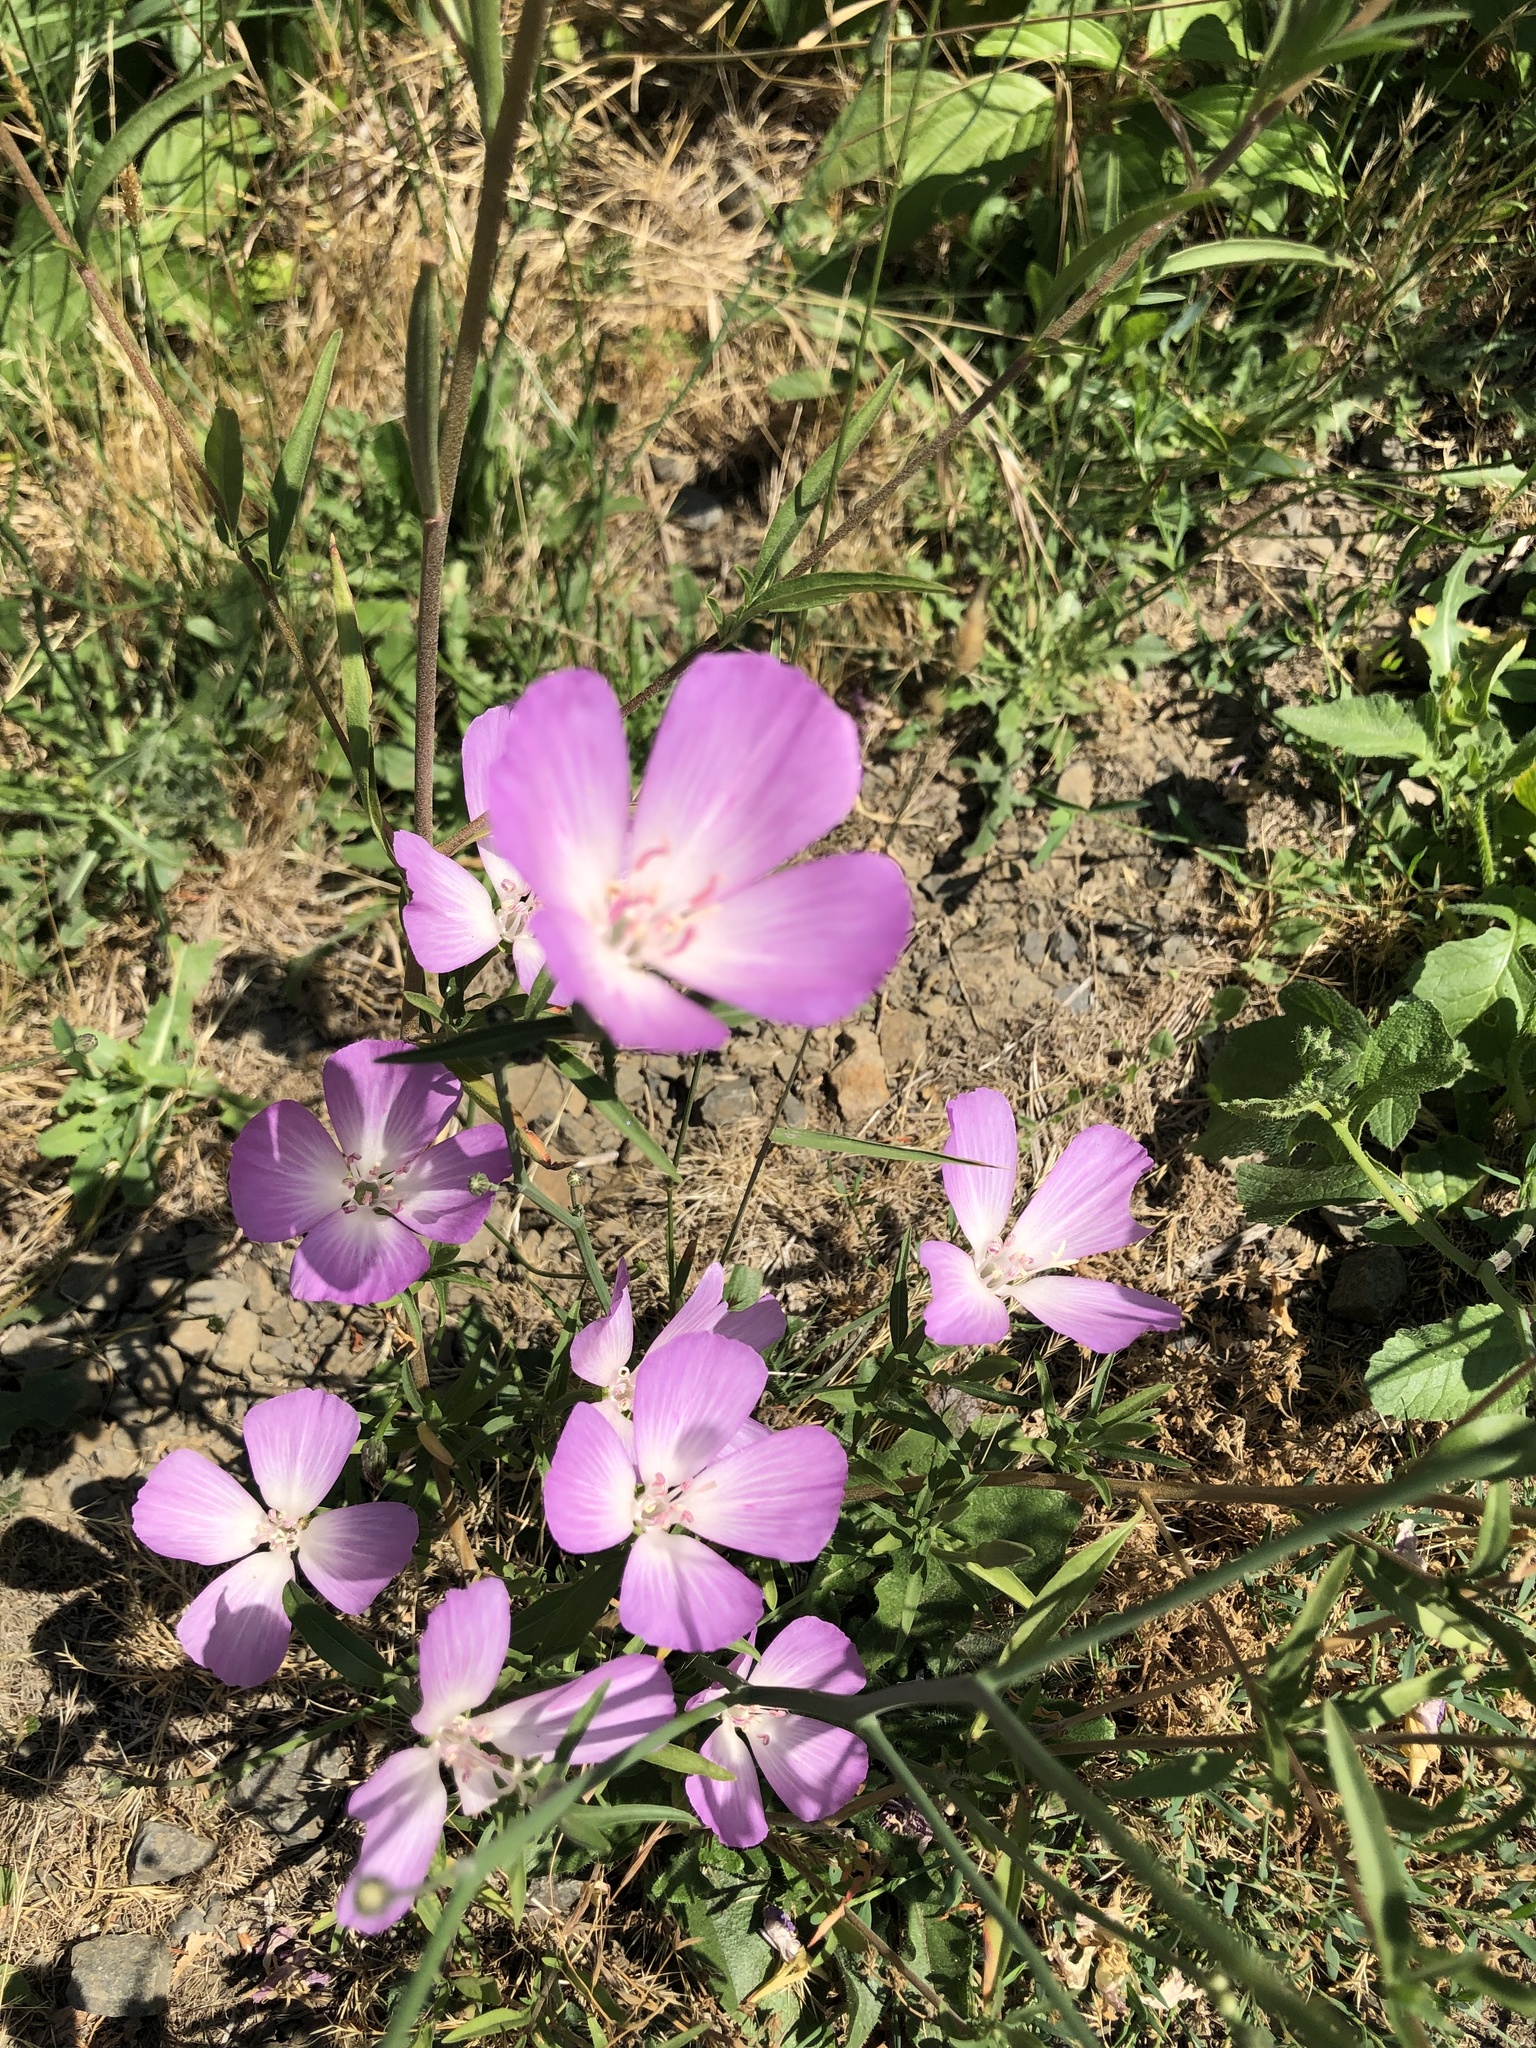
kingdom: Plantae
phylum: Tracheophyta
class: Magnoliopsida
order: Myrtales
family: Onagraceae
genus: Clarkia
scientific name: Clarkia amoena
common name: Godetia
